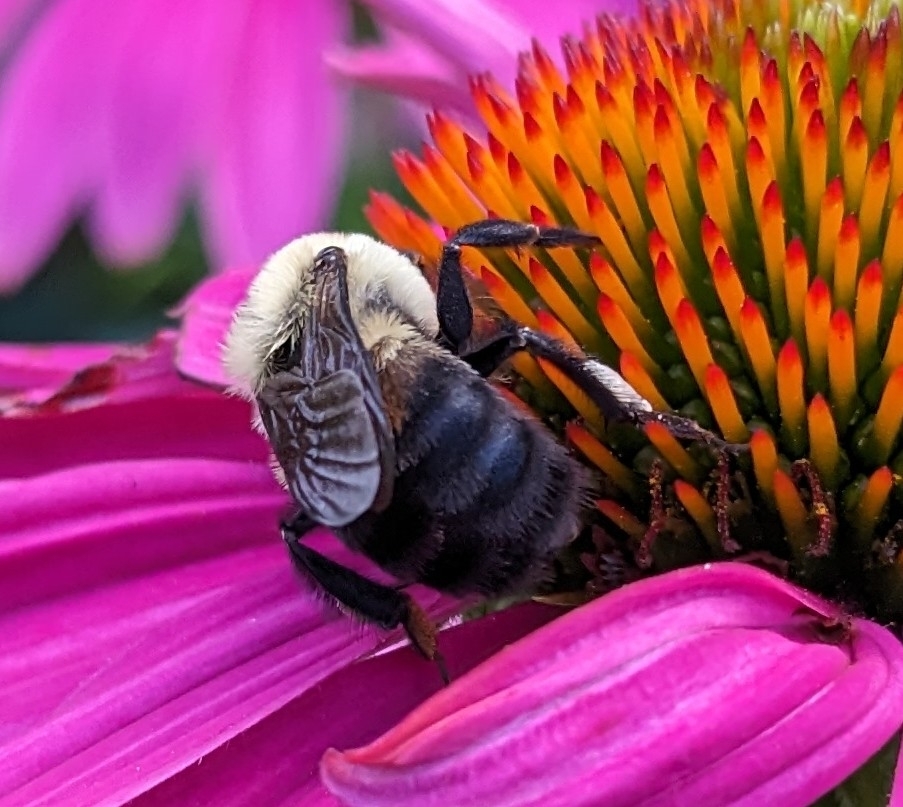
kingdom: Animalia
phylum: Arthropoda
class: Insecta
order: Hymenoptera
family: Apidae
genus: Bombus
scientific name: Bombus griseocollis
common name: Brown-belted bumble bee
